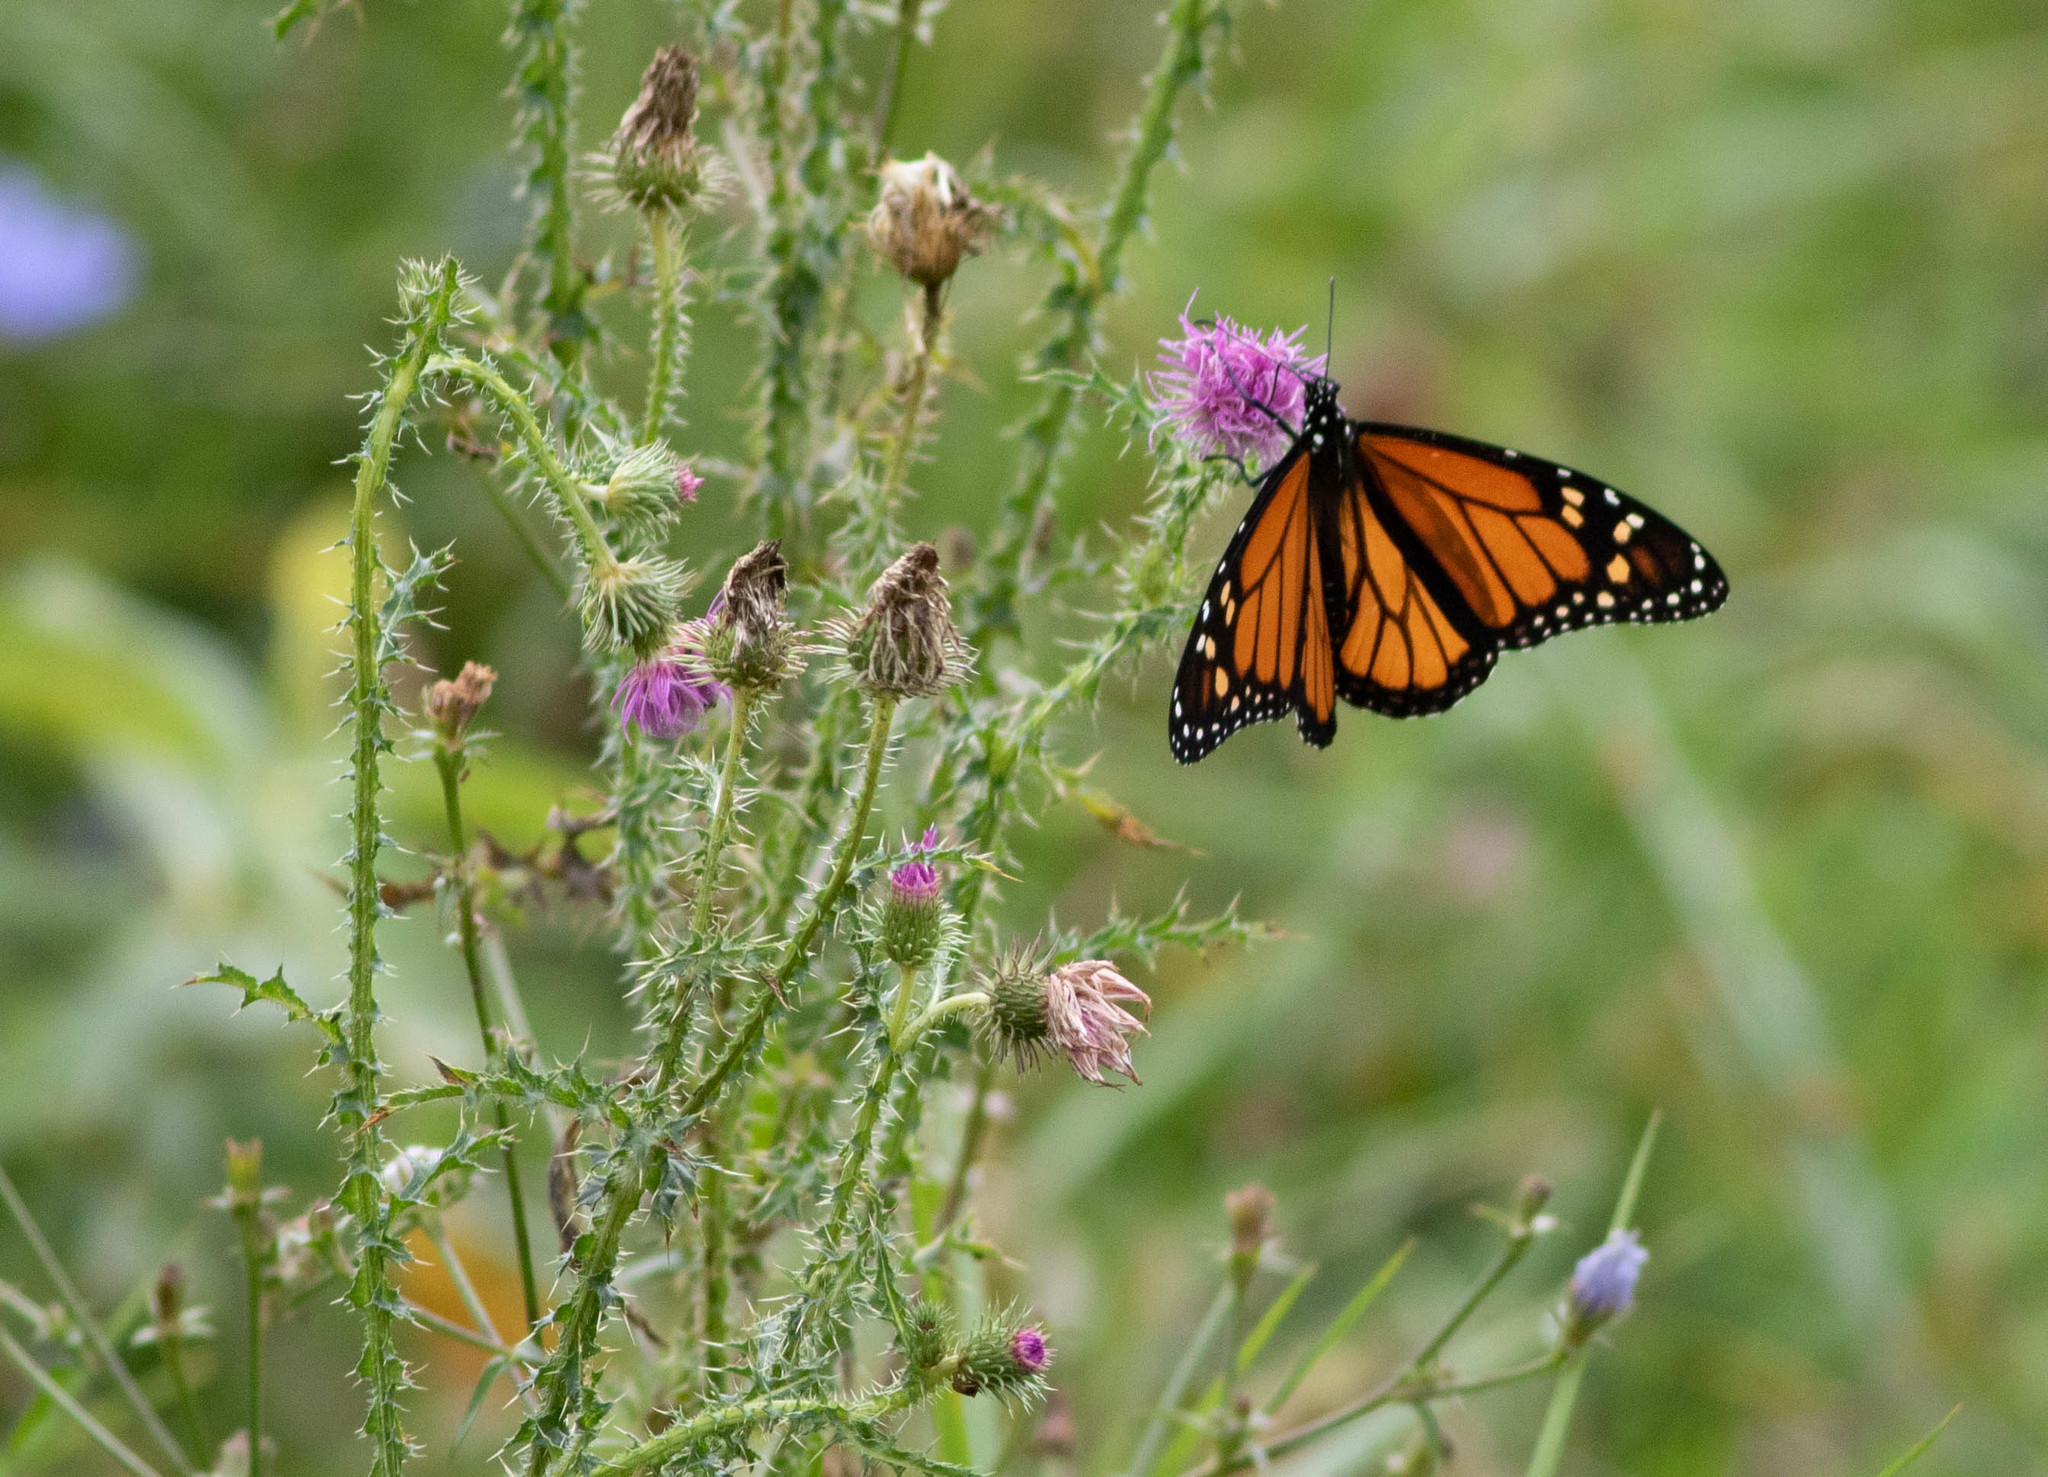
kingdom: Animalia
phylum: Arthropoda
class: Insecta
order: Lepidoptera
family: Nymphalidae
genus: Danaus
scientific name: Danaus plexippus
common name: Monarch
